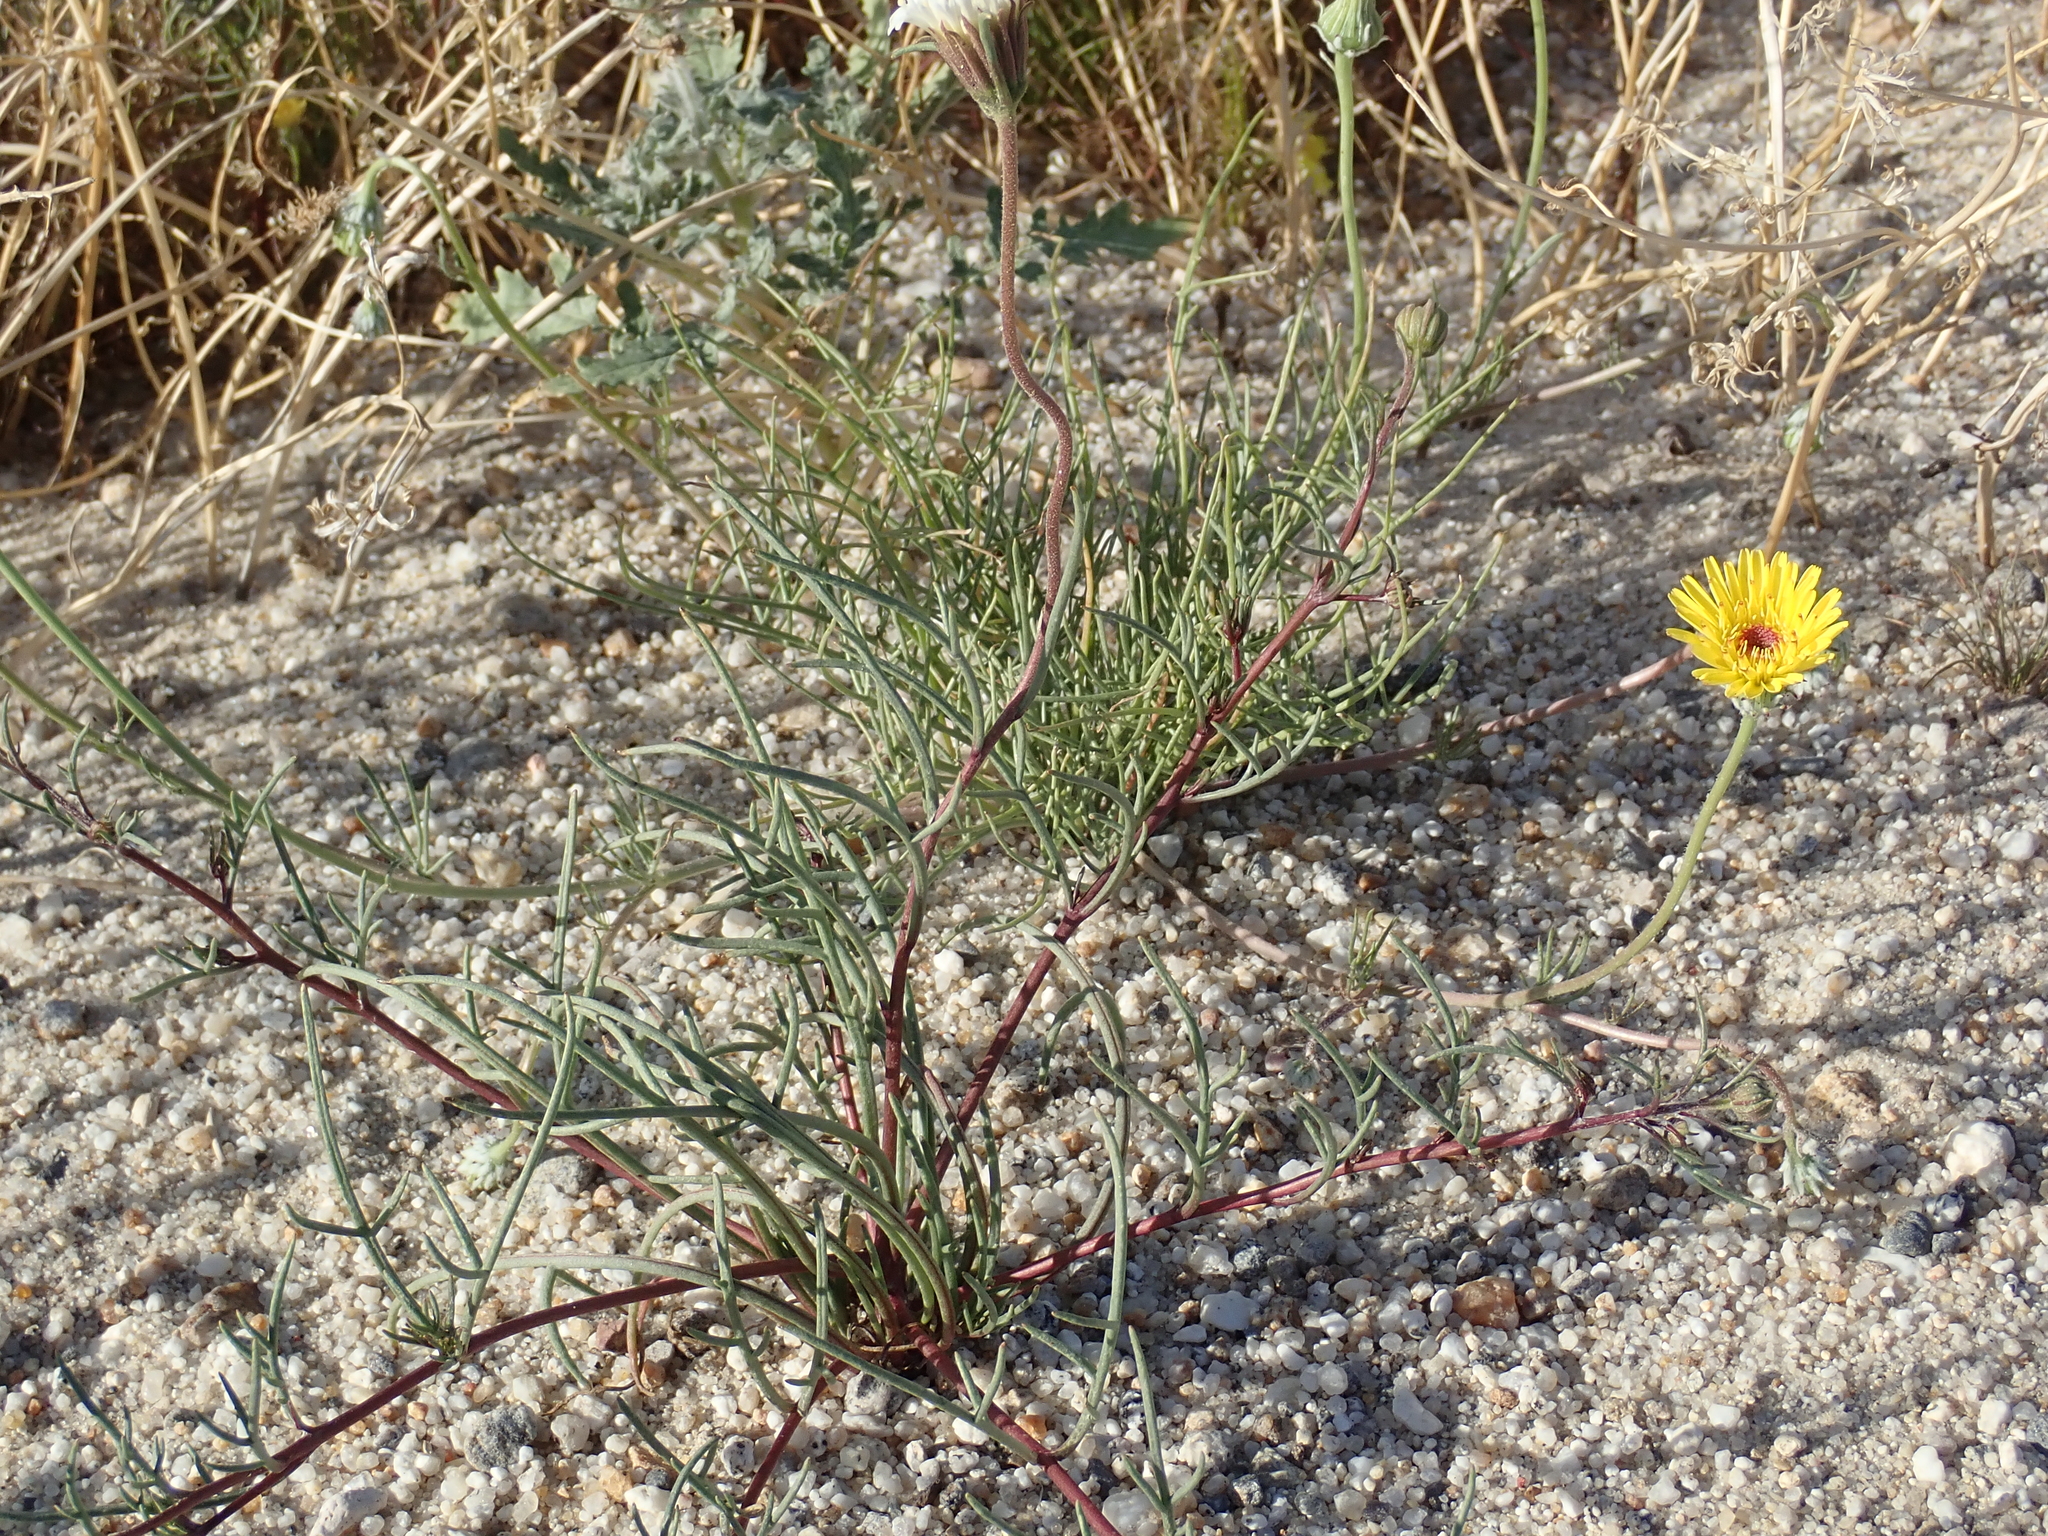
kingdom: Plantae
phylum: Tracheophyta
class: Magnoliopsida
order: Asterales
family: Asteraceae
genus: Malacothrix
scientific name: Malacothrix glabrata
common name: Smooth desert-dandelion
